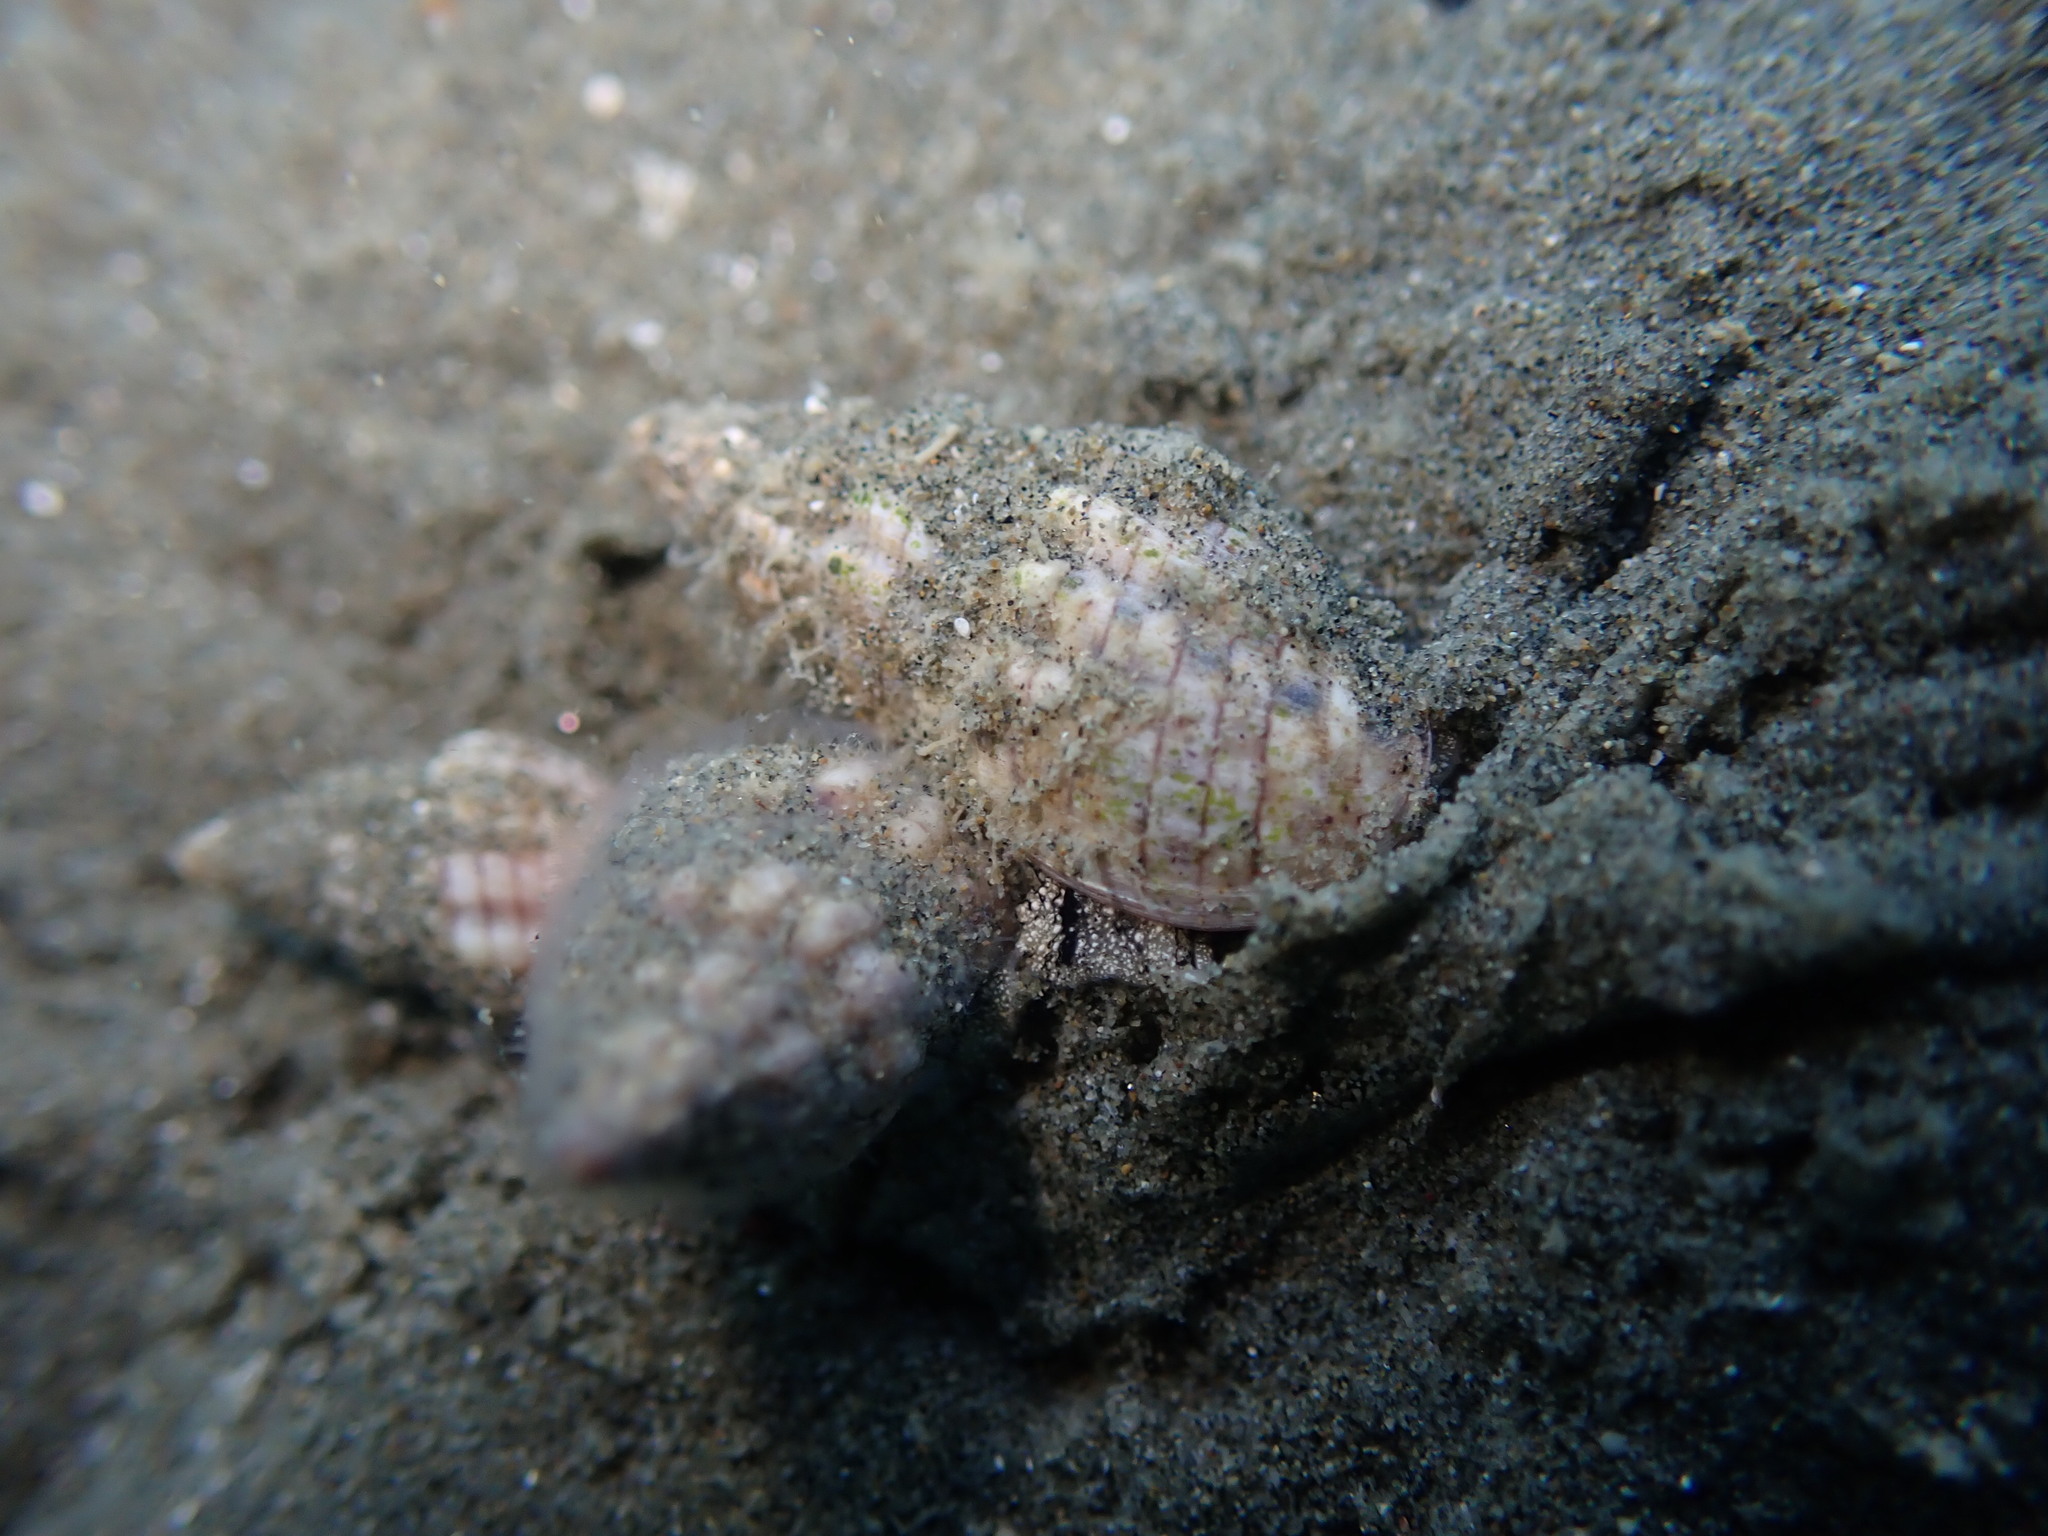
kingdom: Animalia
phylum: Mollusca
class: Gastropoda
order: Neogastropoda
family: Cominellidae
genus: Cominella
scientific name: Cominella quoyana
